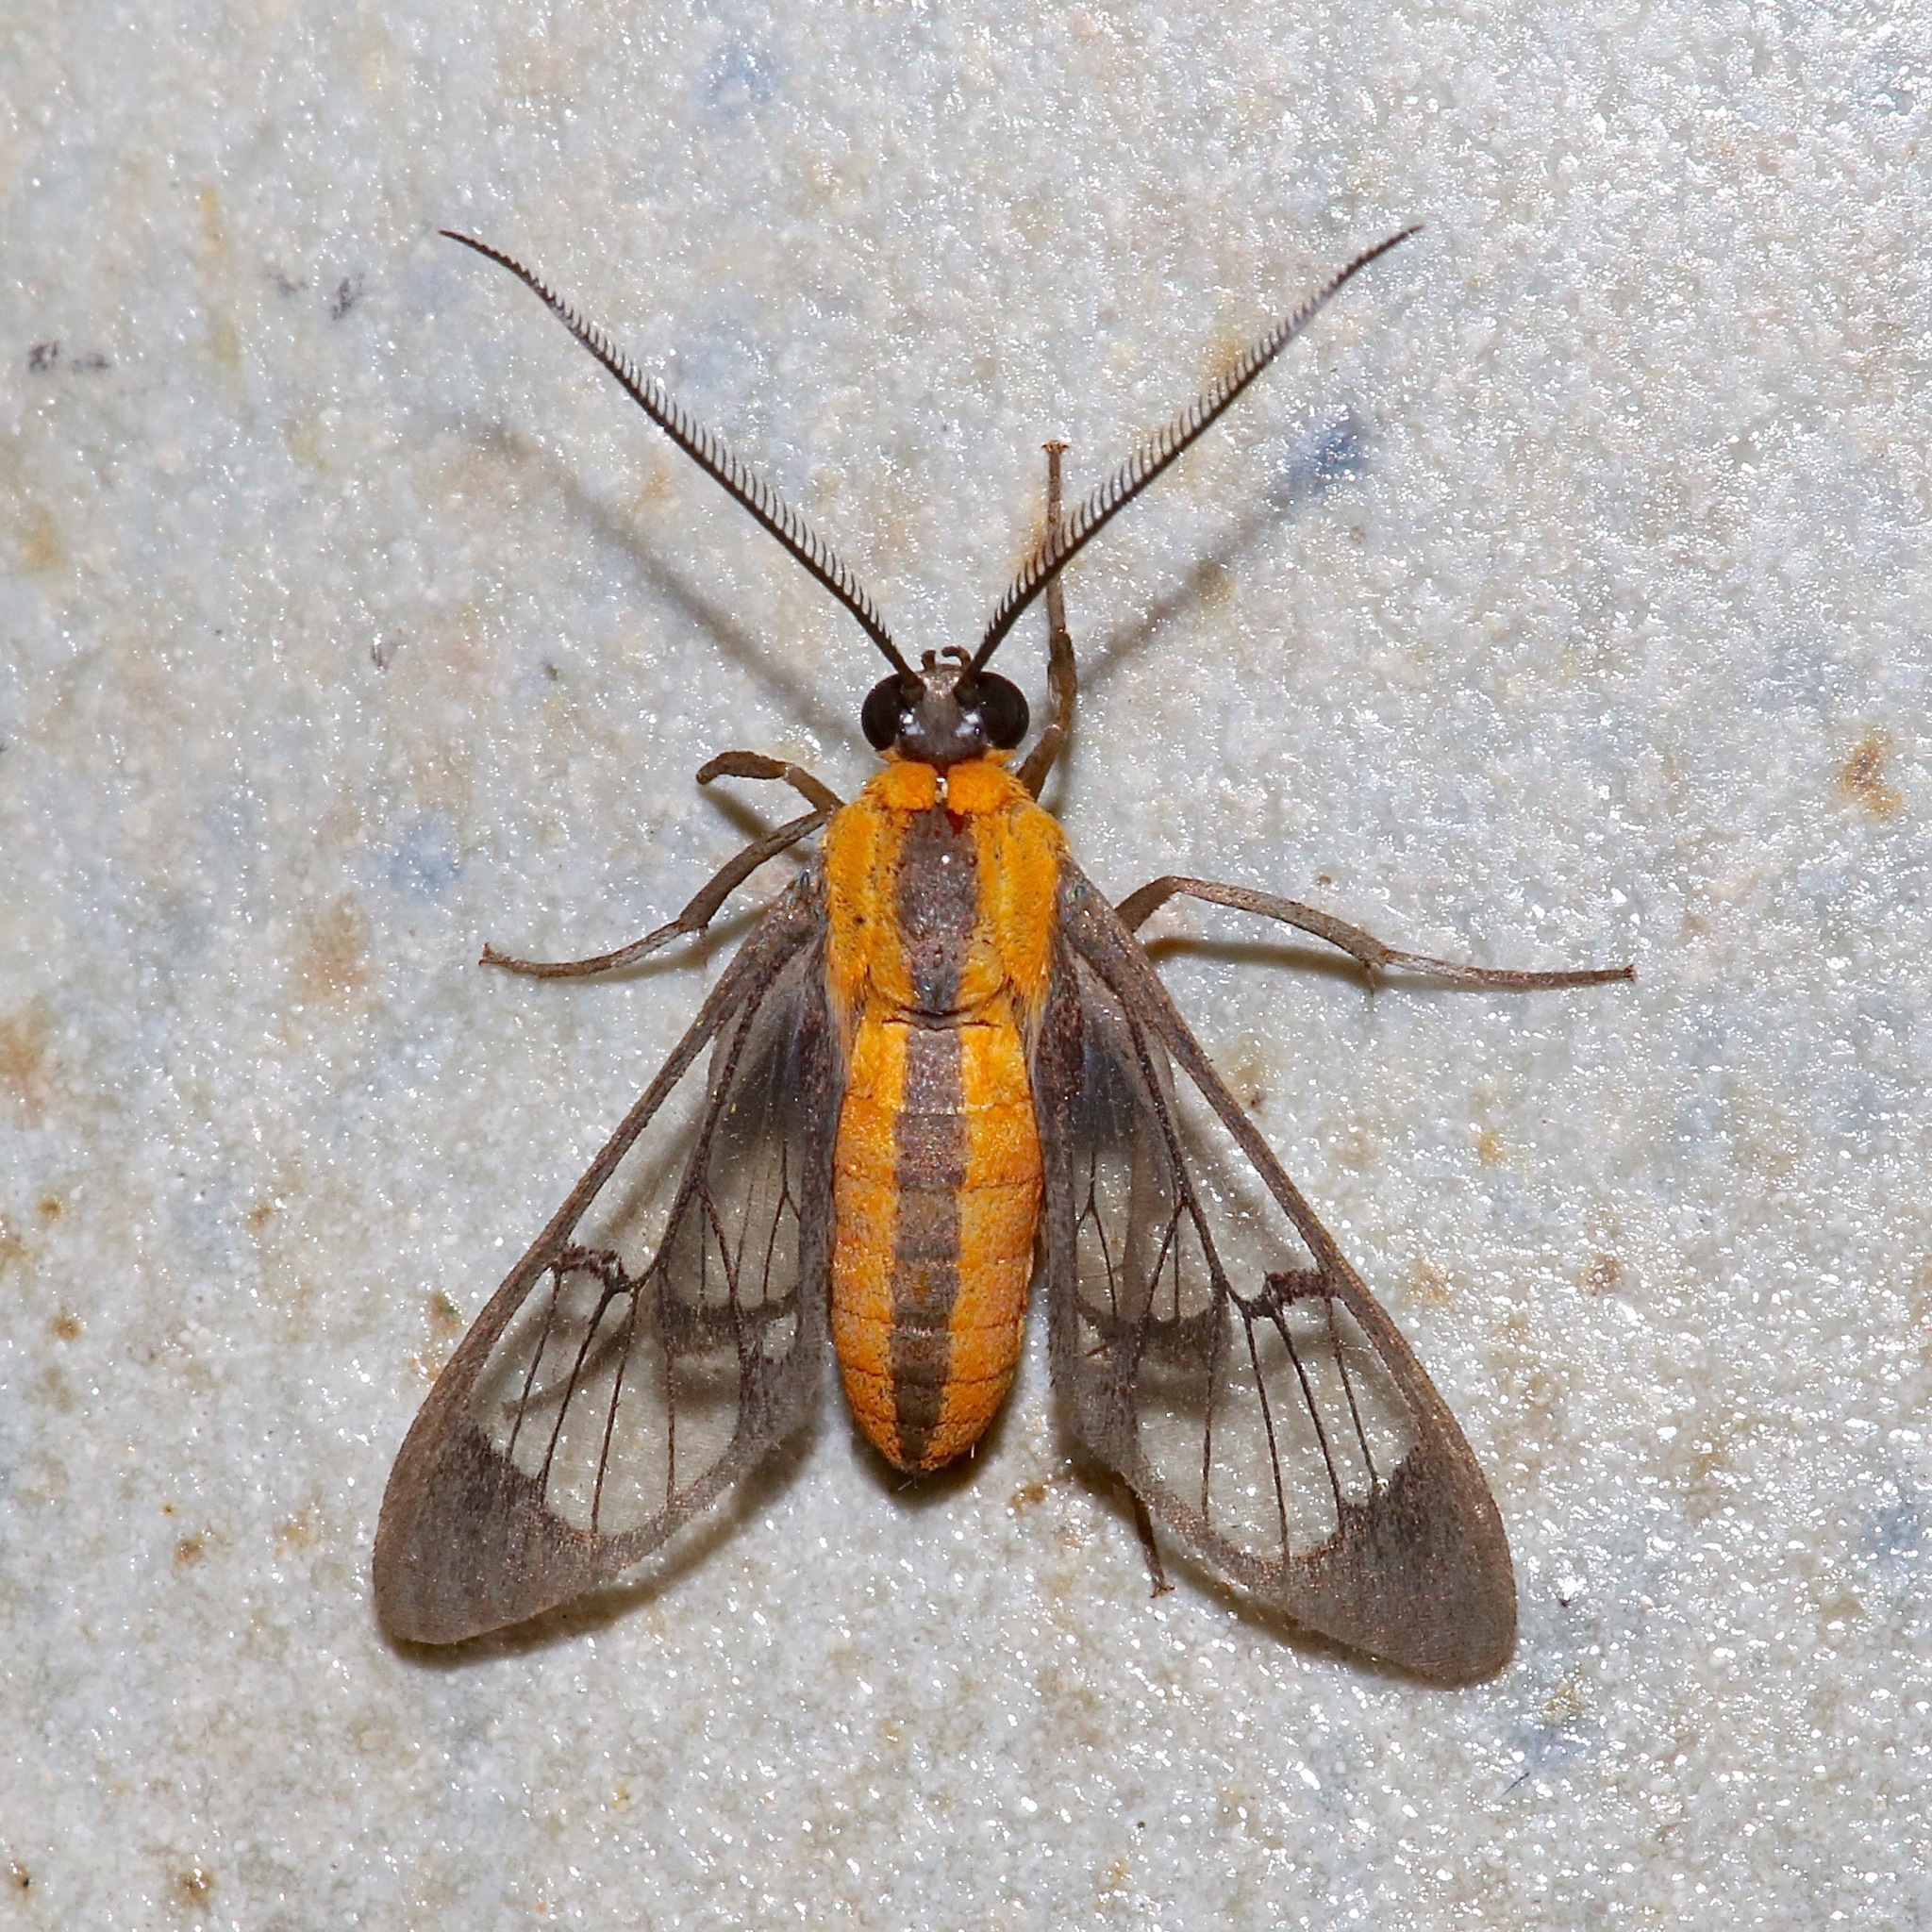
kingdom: Animalia
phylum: Arthropoda
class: Insecta
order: Lepidoptera
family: Erebidae
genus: Loxophlebia
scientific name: Loxophlebia imitata
